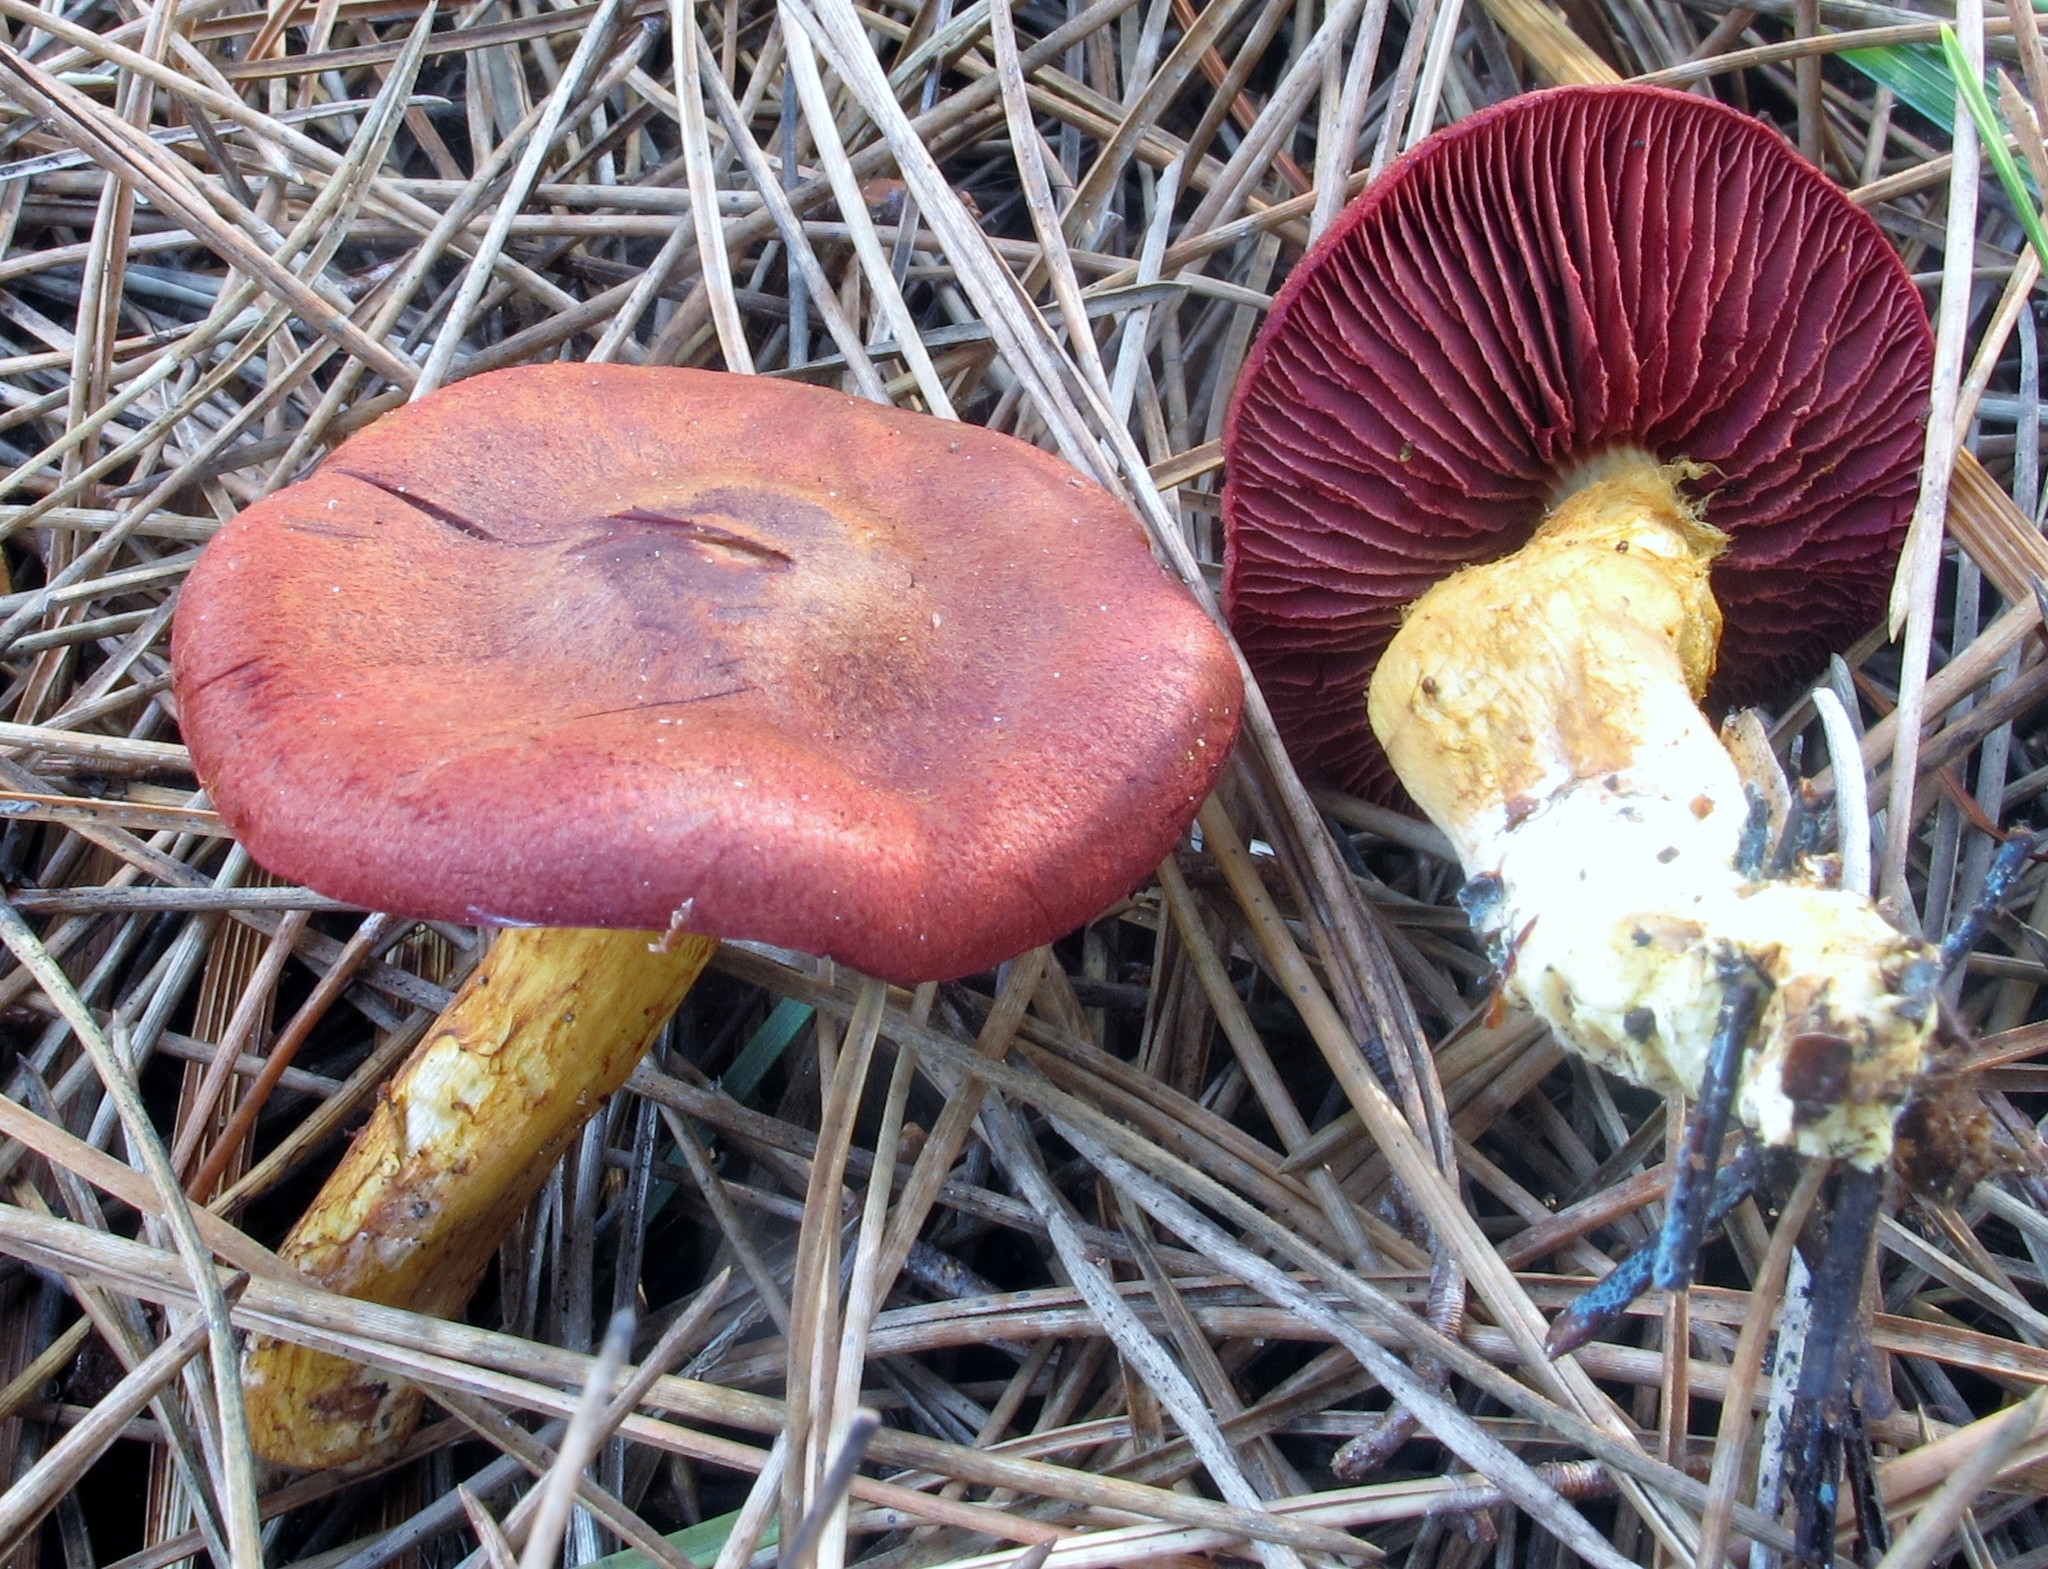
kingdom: Fungi
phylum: Basidiomycota
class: Agaricomycetes
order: Agaricales
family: Cortinariaceae
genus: Cortinarius
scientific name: Cortinarius smithii
